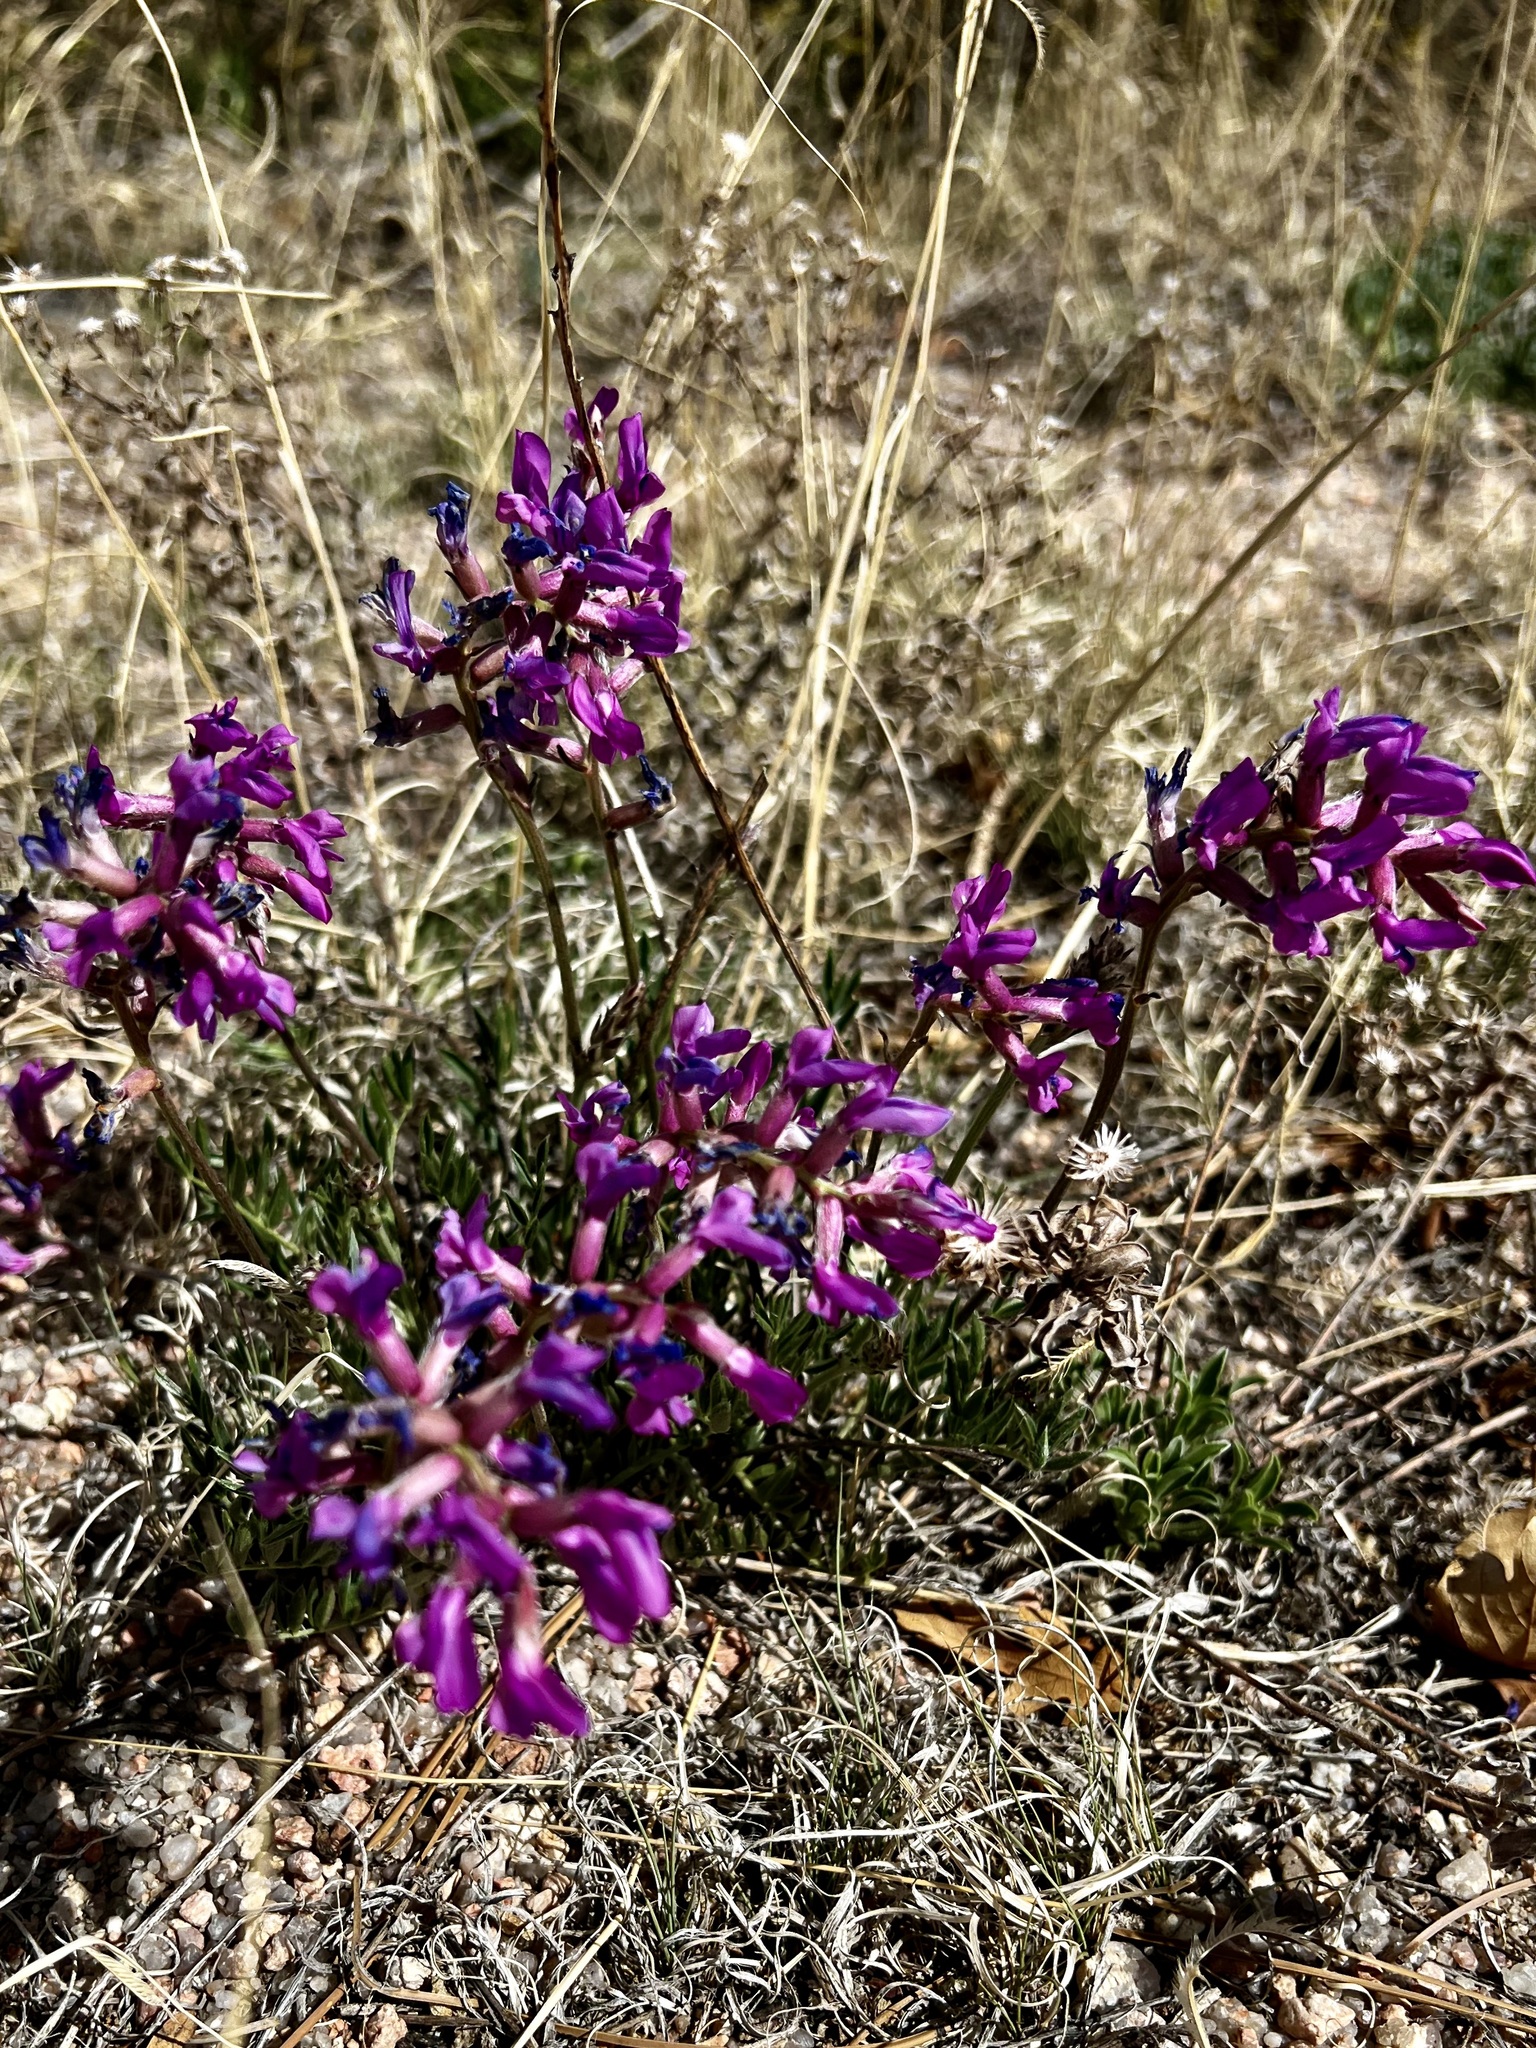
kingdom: Plantae
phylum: Tracheophyta
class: Magnoliopsida
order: Fabales
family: Fabaceae
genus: Oxytropis
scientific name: Oxytropis lambertii
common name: Purple locoweed
